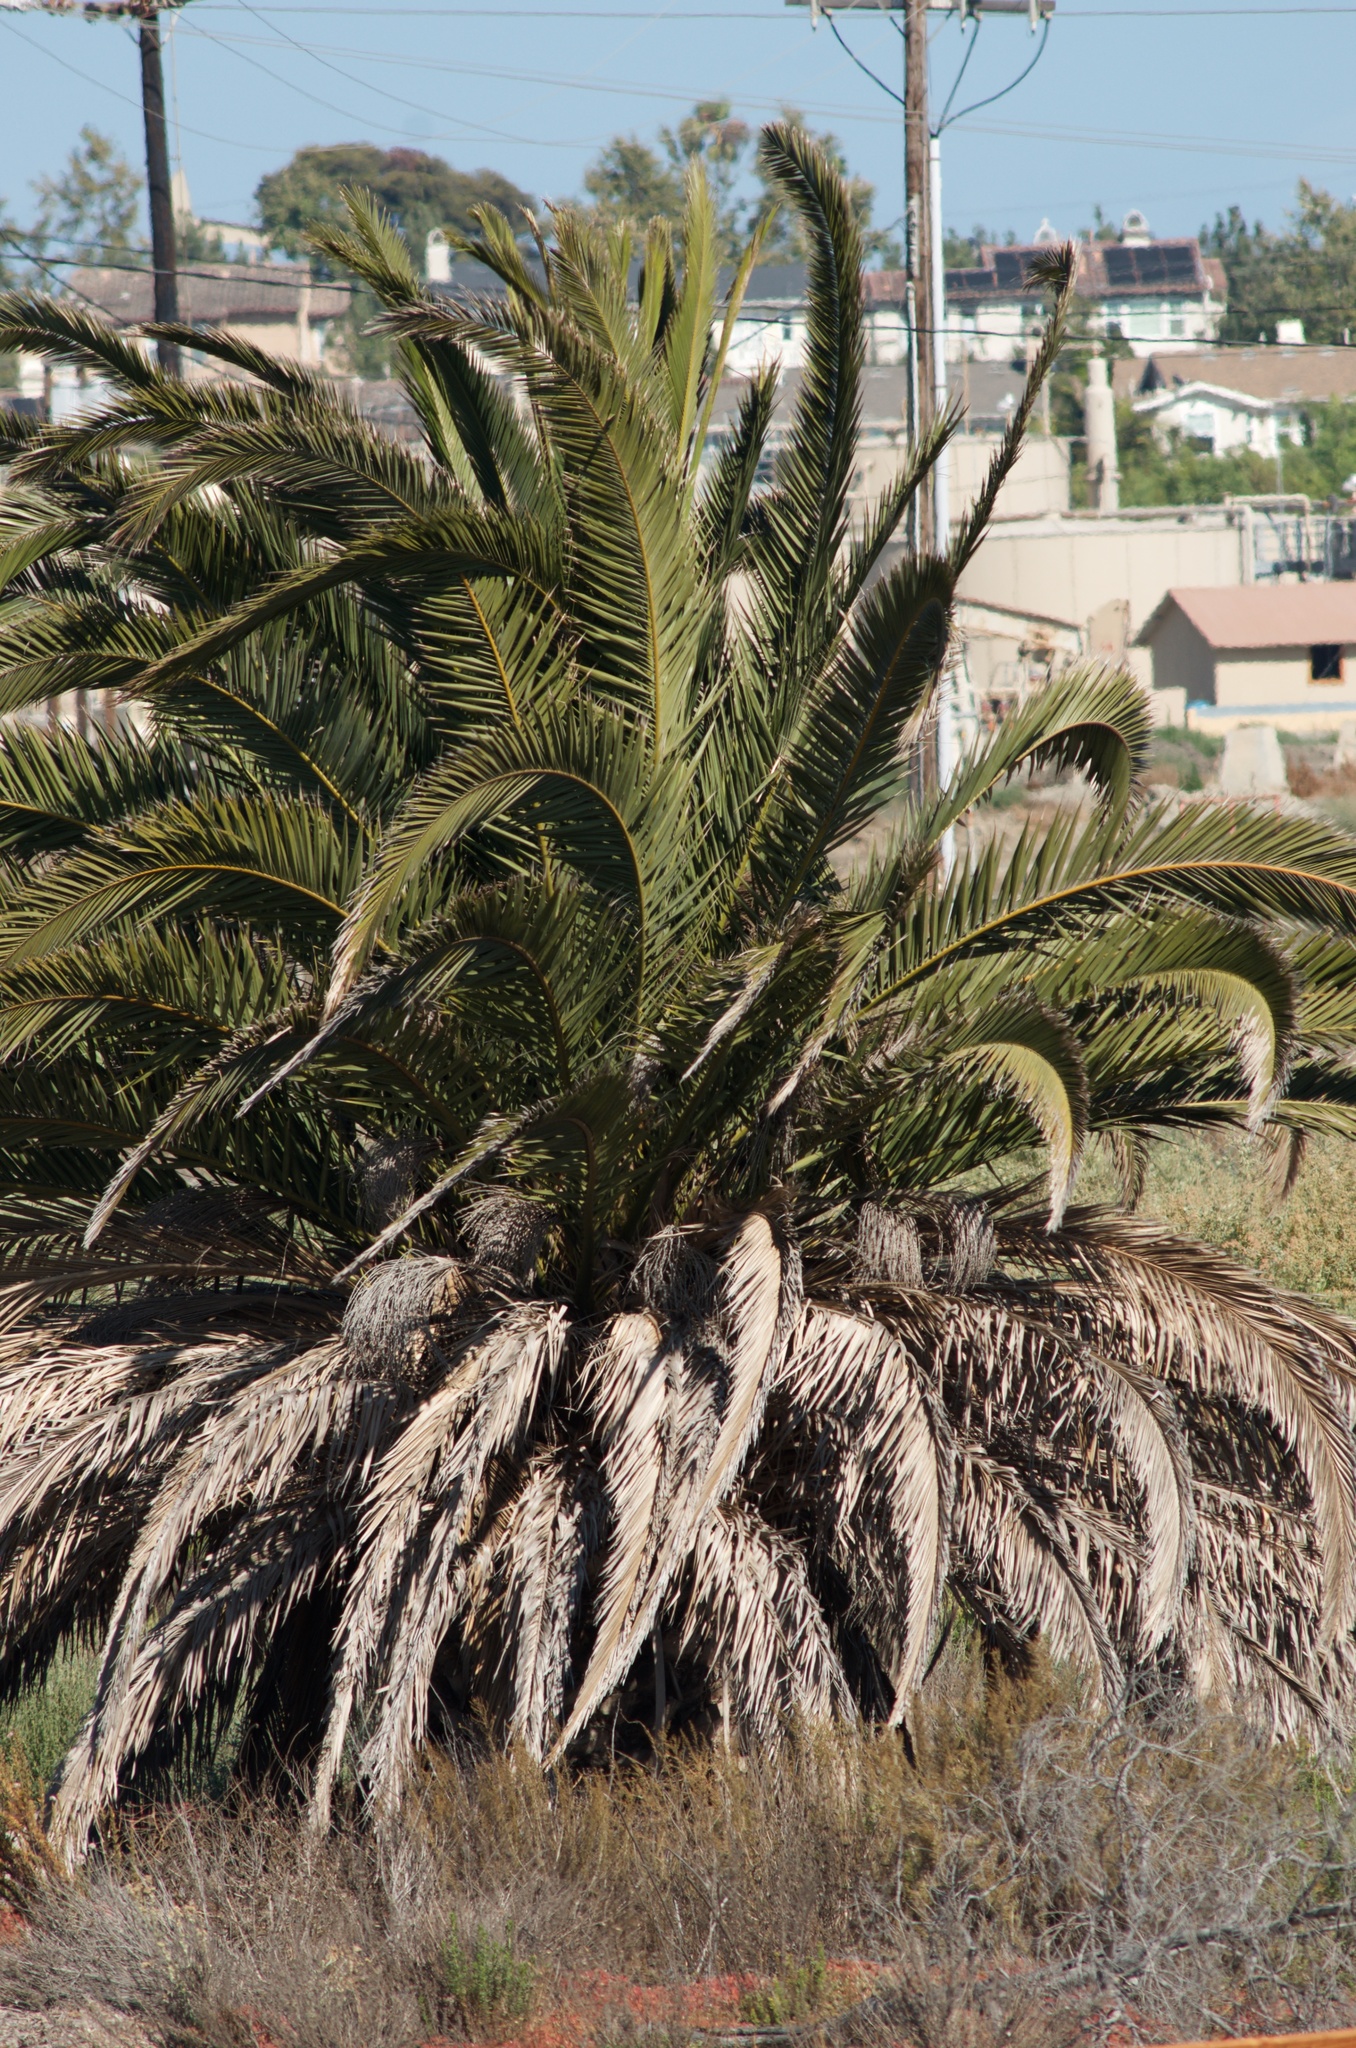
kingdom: Plantae
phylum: Tracheophyta
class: Liliopsida
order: Arecales
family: Arecaceae
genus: Phoenix
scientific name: Phoenix canariensis
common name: Canary island date palm
